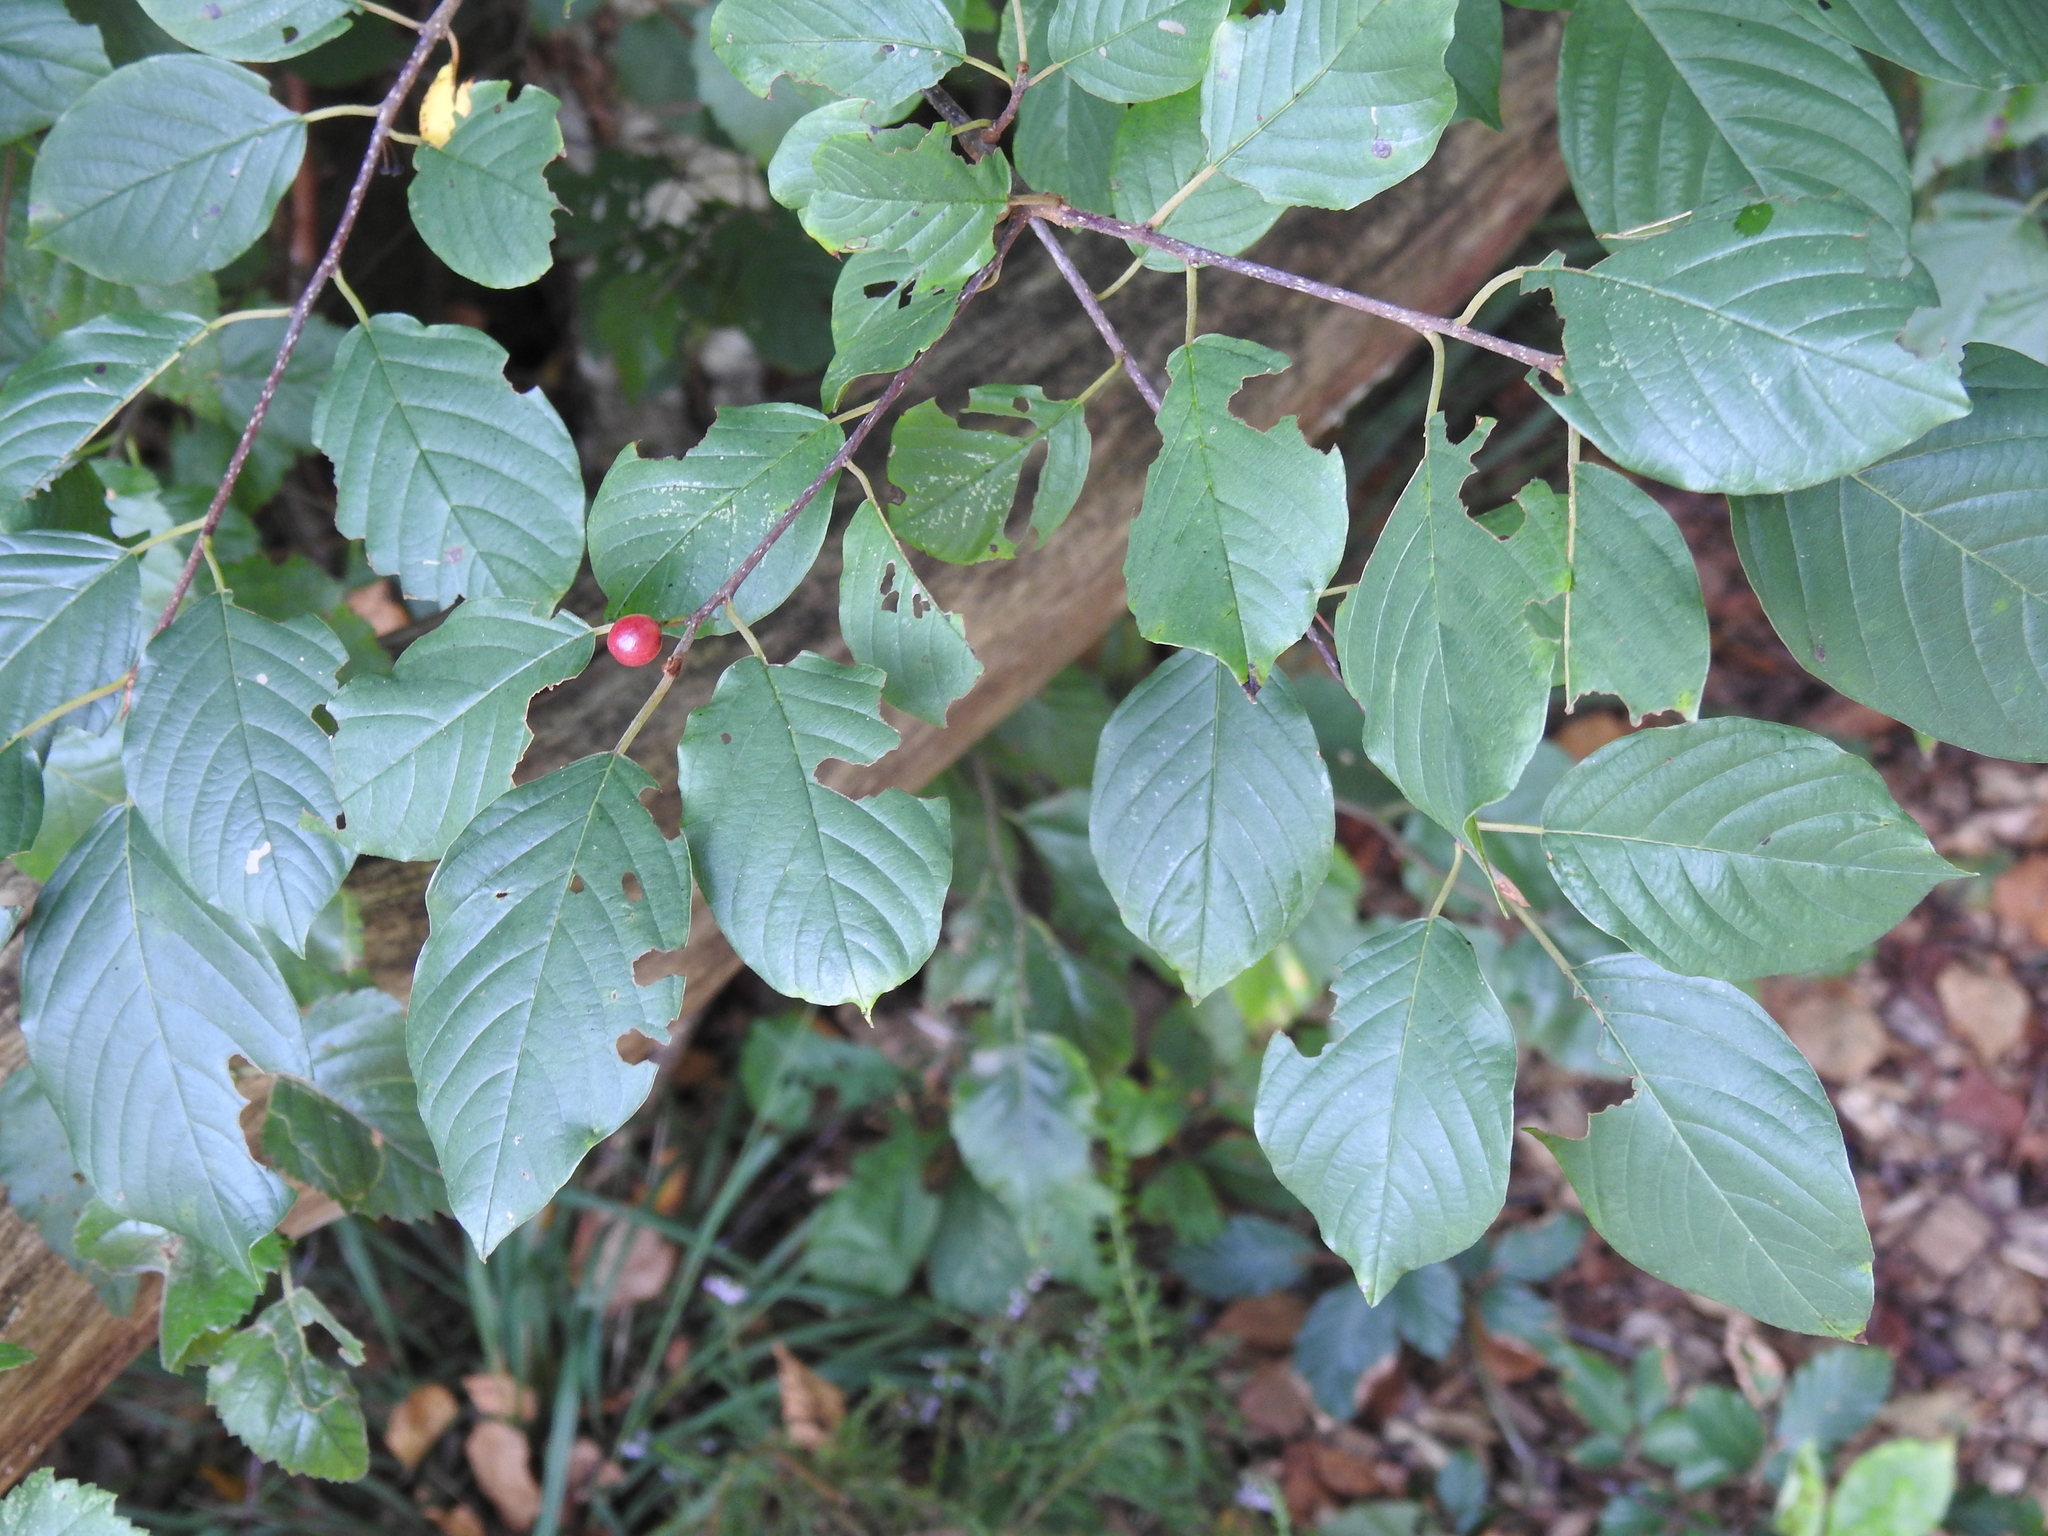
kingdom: Plantae
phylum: Tracheophyta
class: Magnoliopsida
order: Rosales
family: Rhamnaceae
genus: Frangula
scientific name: Frangula alnus
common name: Alder buckthorn
